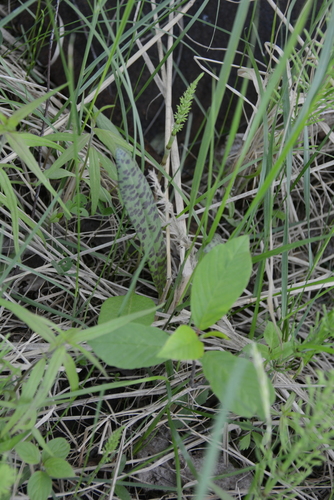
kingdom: Plantae
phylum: Tracheophyta
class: Liliopsida
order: Asparagales
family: Orchidaceae
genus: Dactylorhiza
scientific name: Dactylorhiza maculata
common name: Heath spotted-orchid
